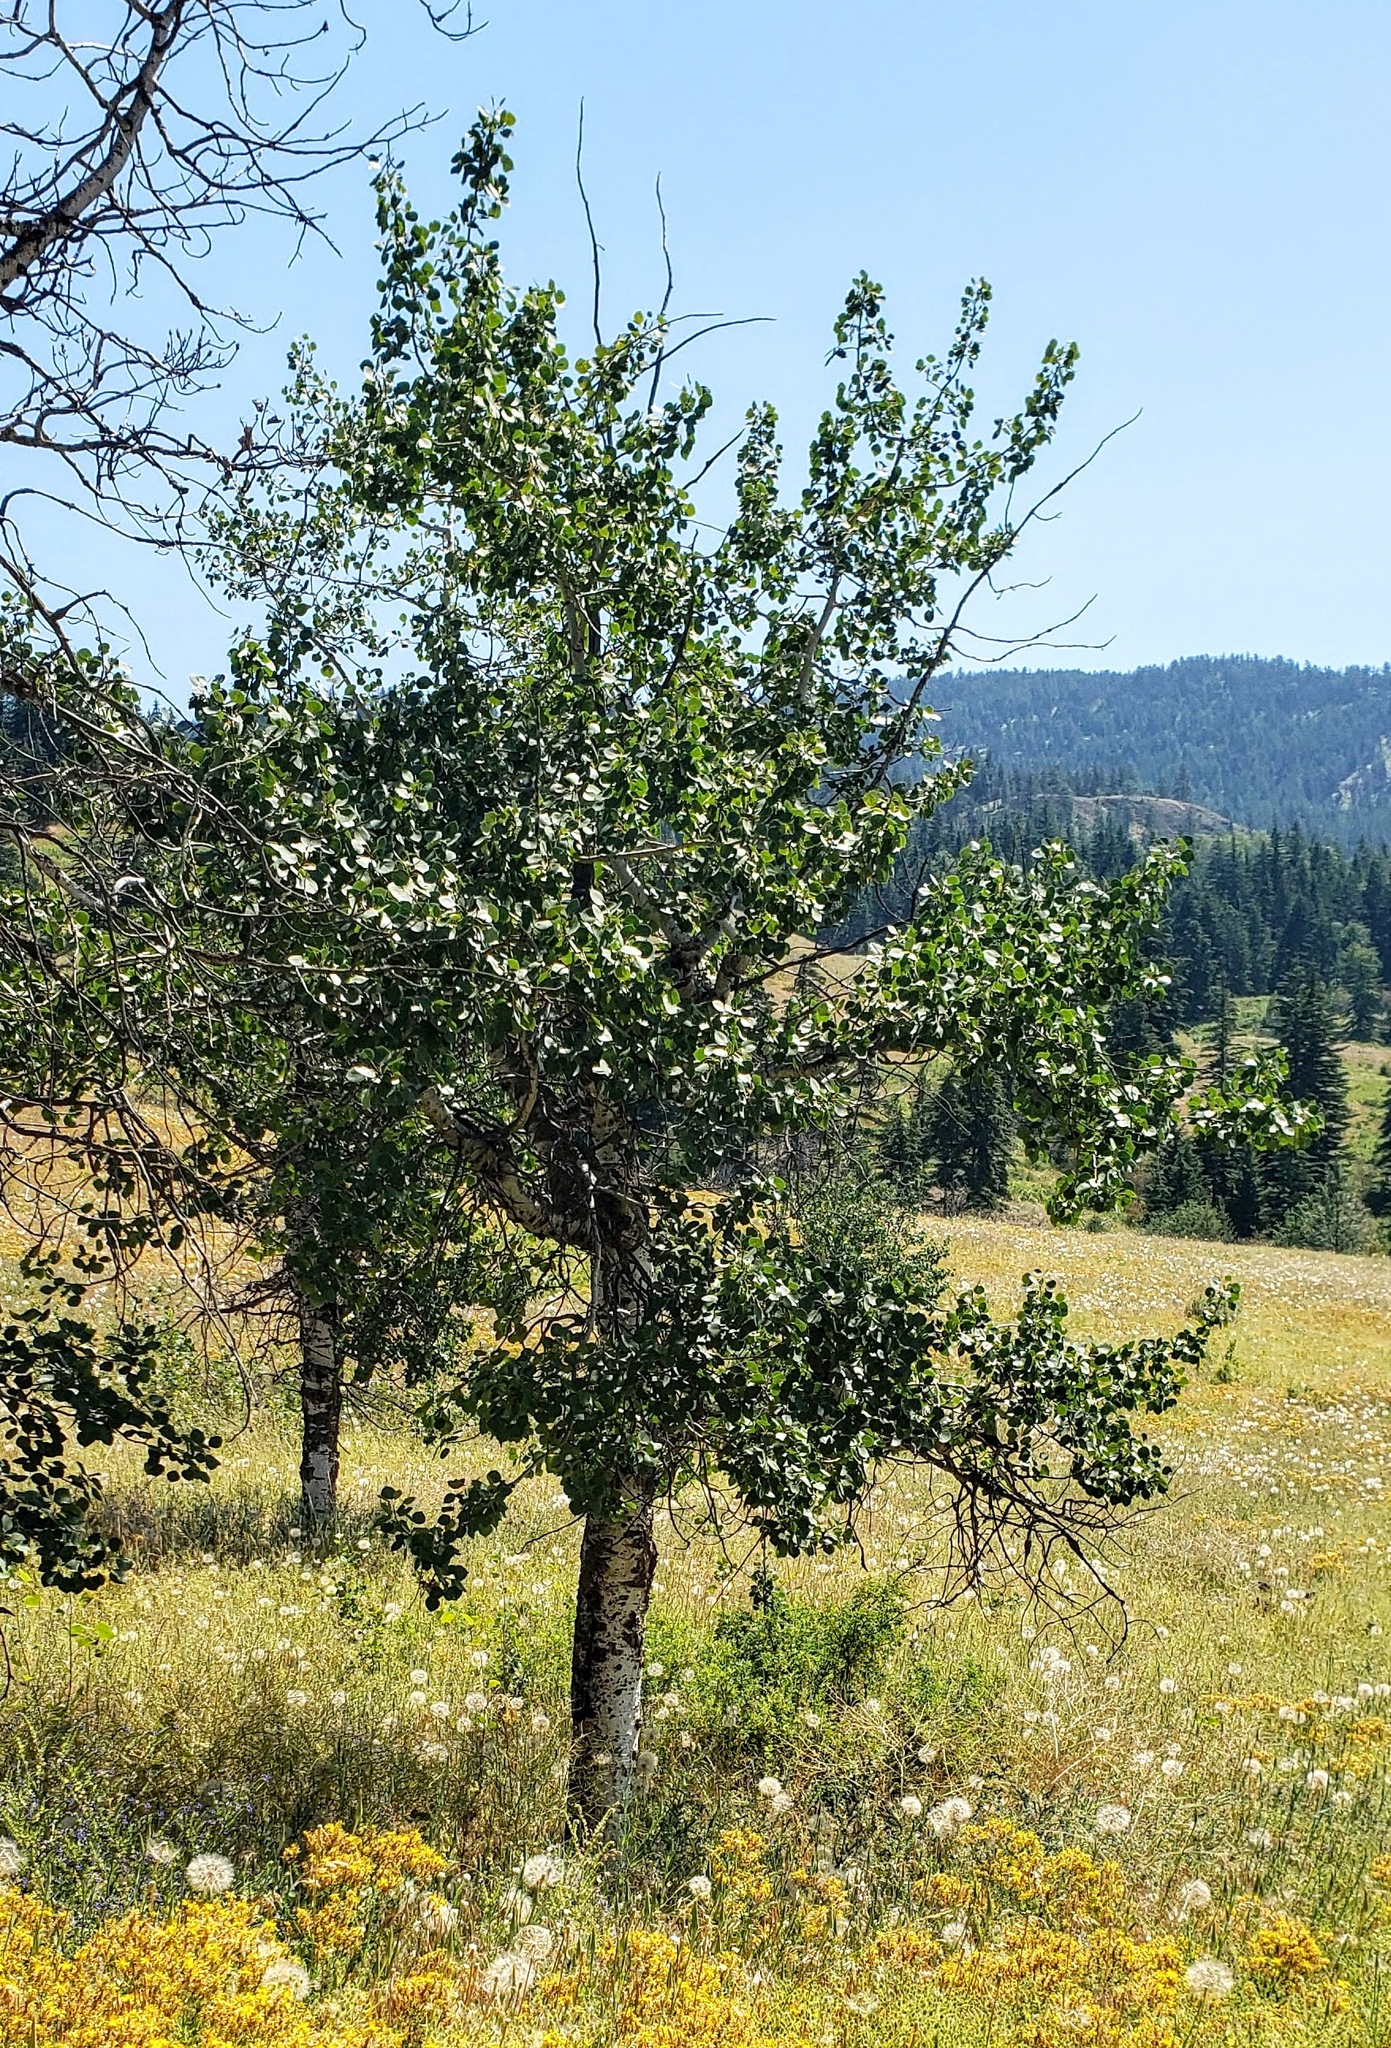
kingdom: Plantae
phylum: Tracheophyta
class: Magnoliopsida
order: Malpighiales
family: Salicaceae
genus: Populus
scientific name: Populus tremuloides
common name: Quaking aspen
